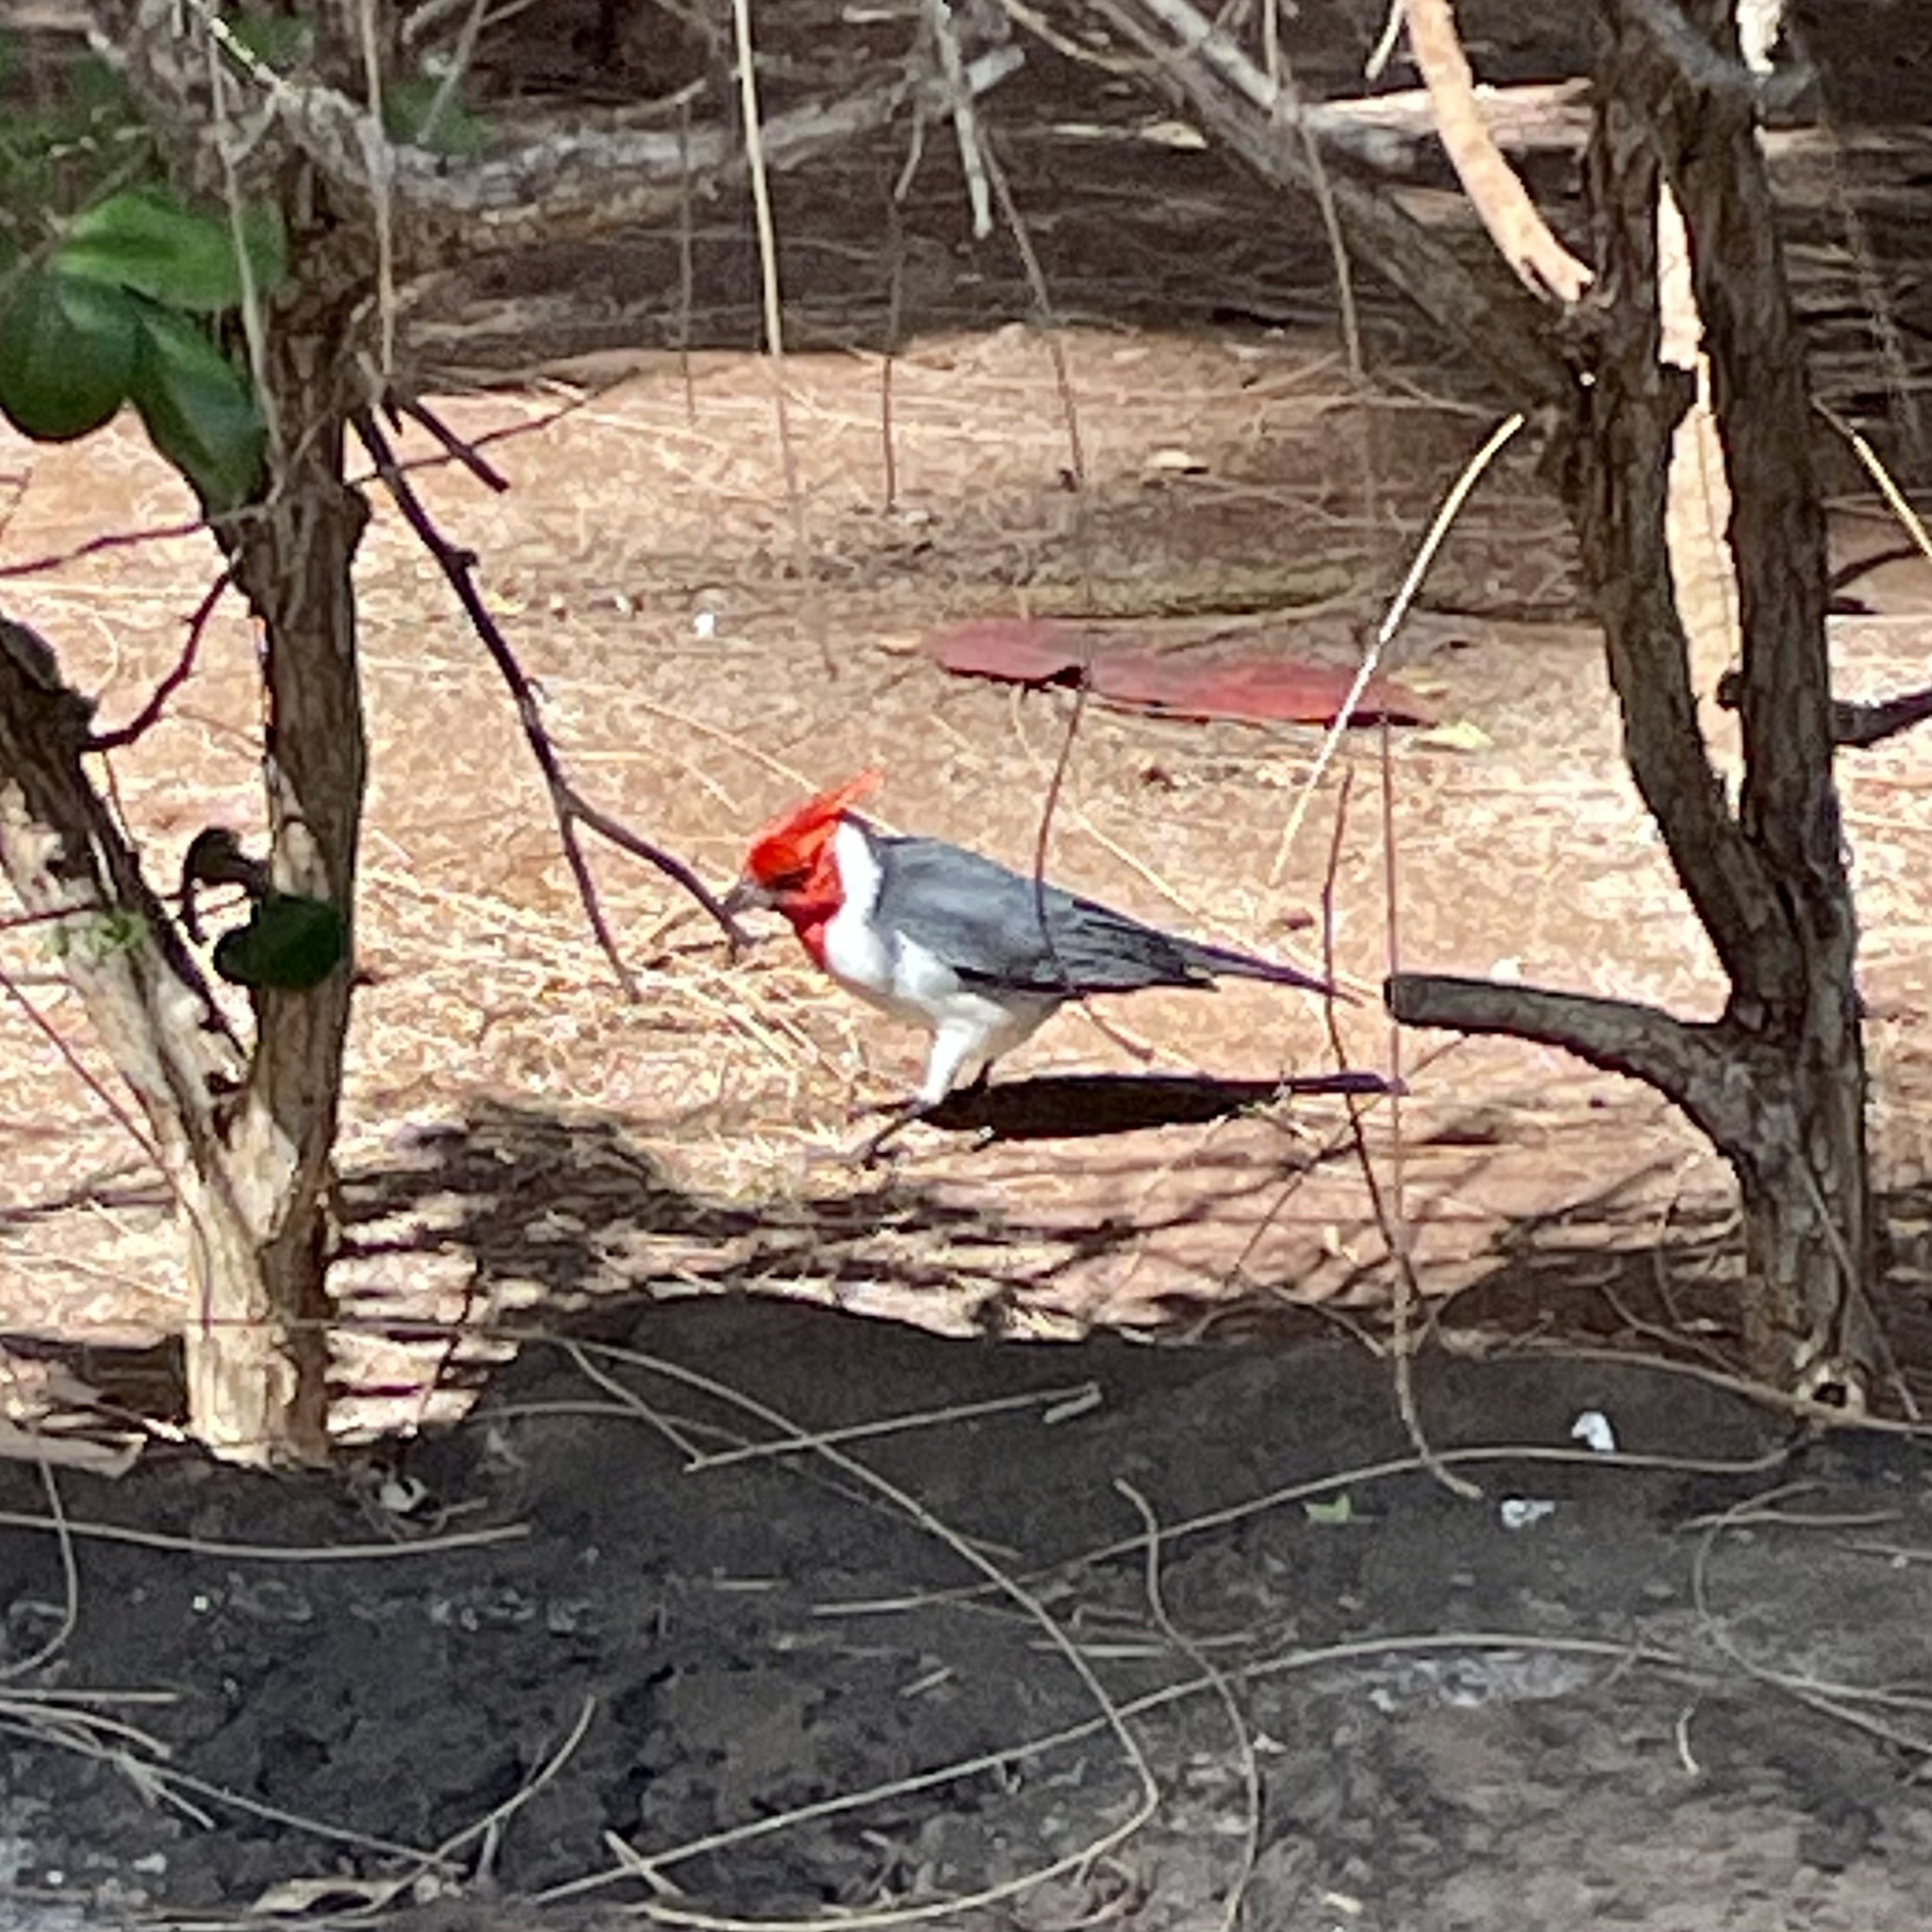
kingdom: Animalia
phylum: Chordata
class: Aves
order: Passeriformes
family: Thraupidae
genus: Paroaria
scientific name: Paroaria coronata
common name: Red-crested cardinal
